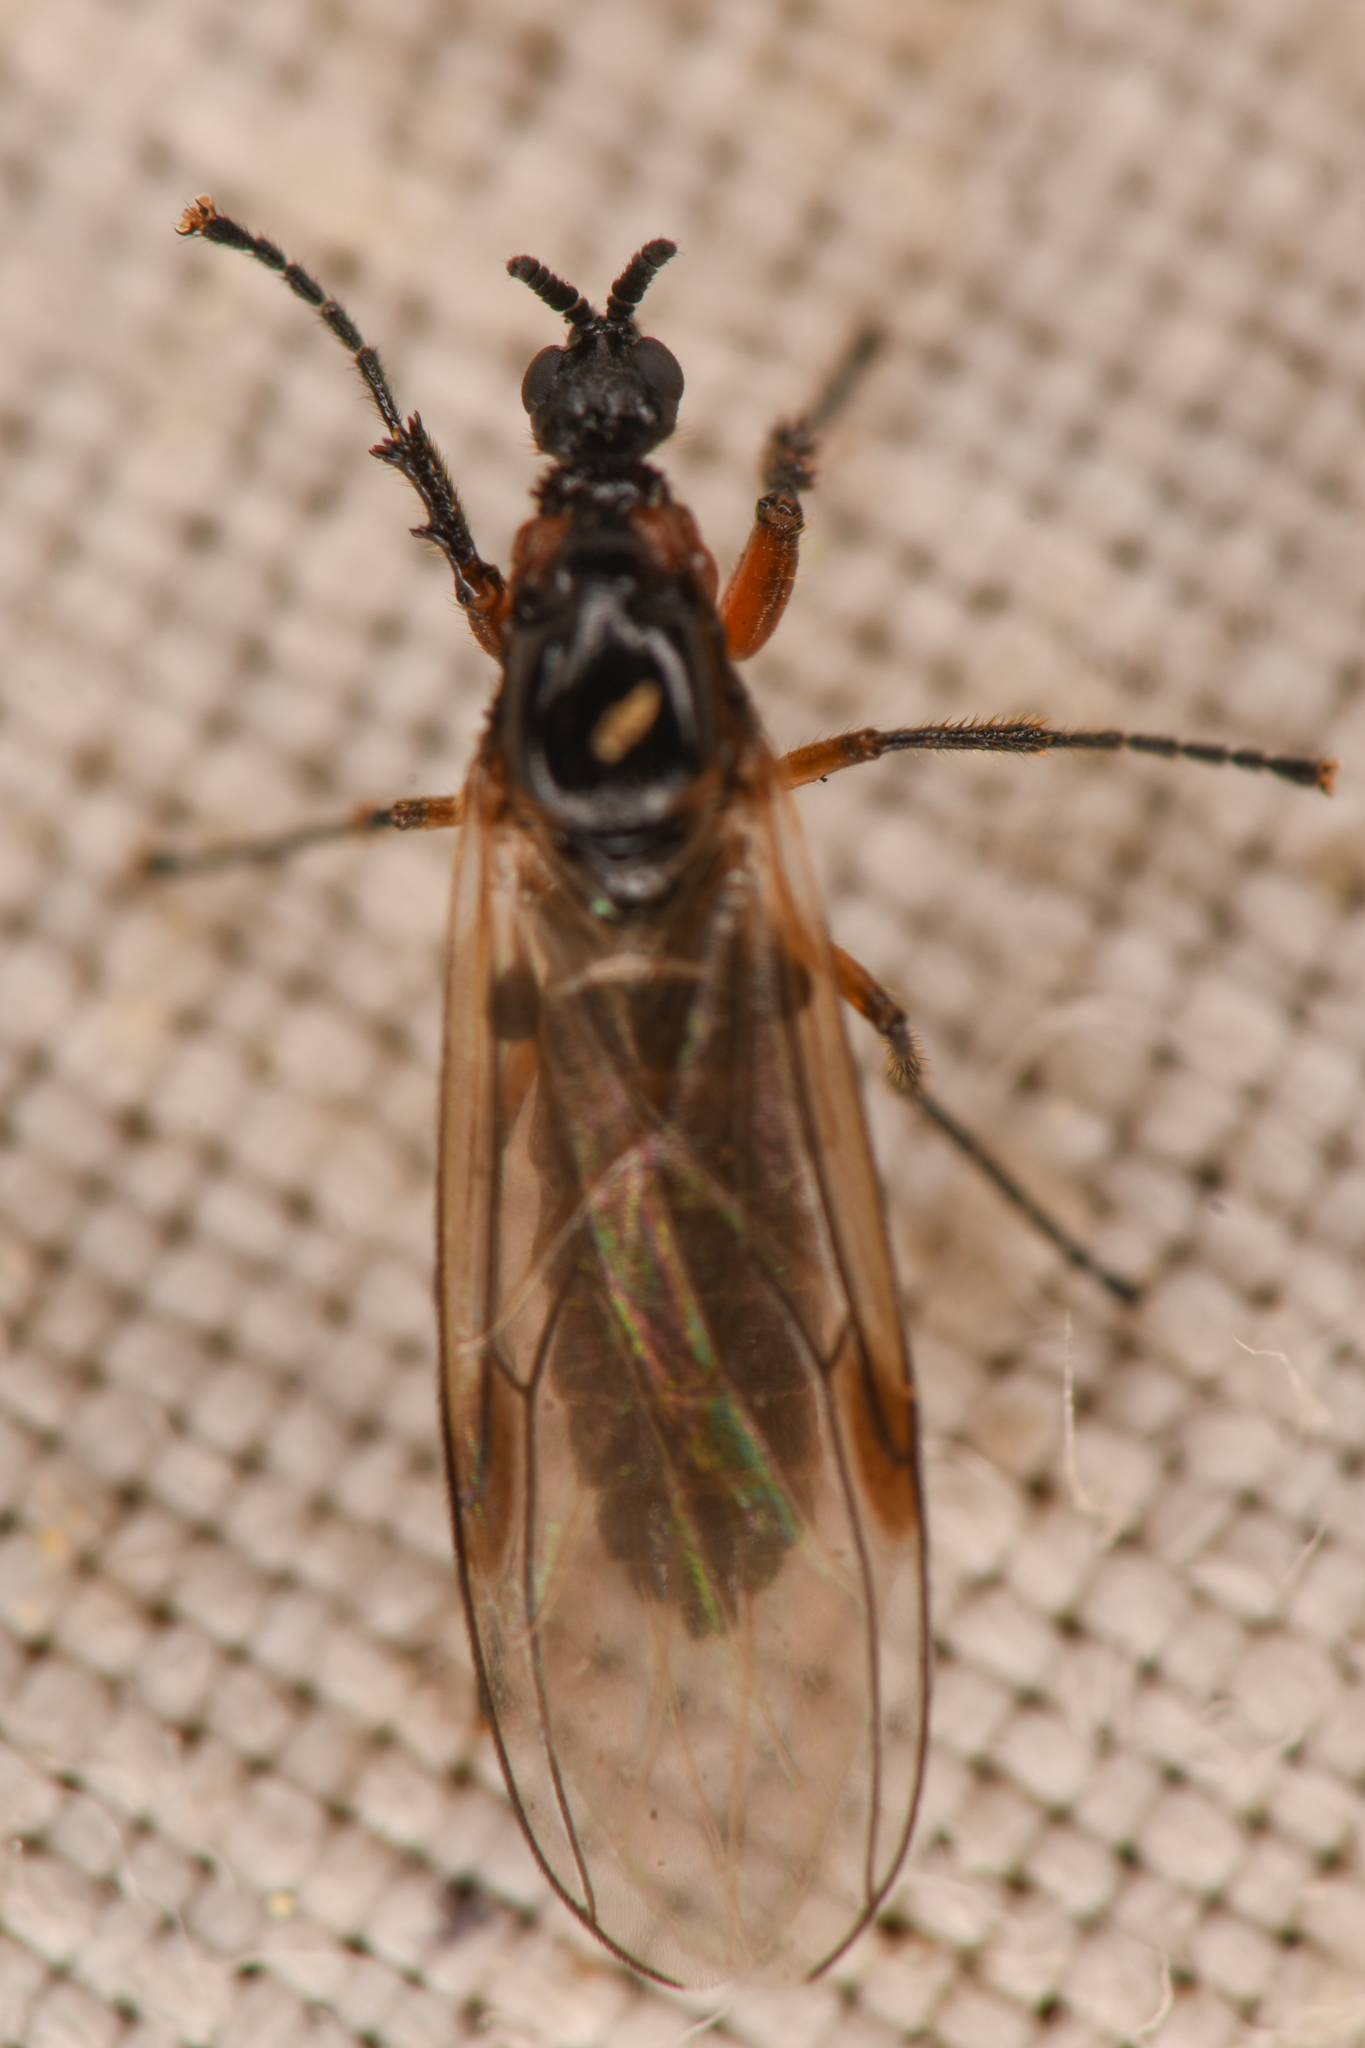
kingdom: Animalia
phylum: Arthropoda
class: Insecta
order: Diptera
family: Bibionidae
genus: Dilophus
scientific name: Dilophus
